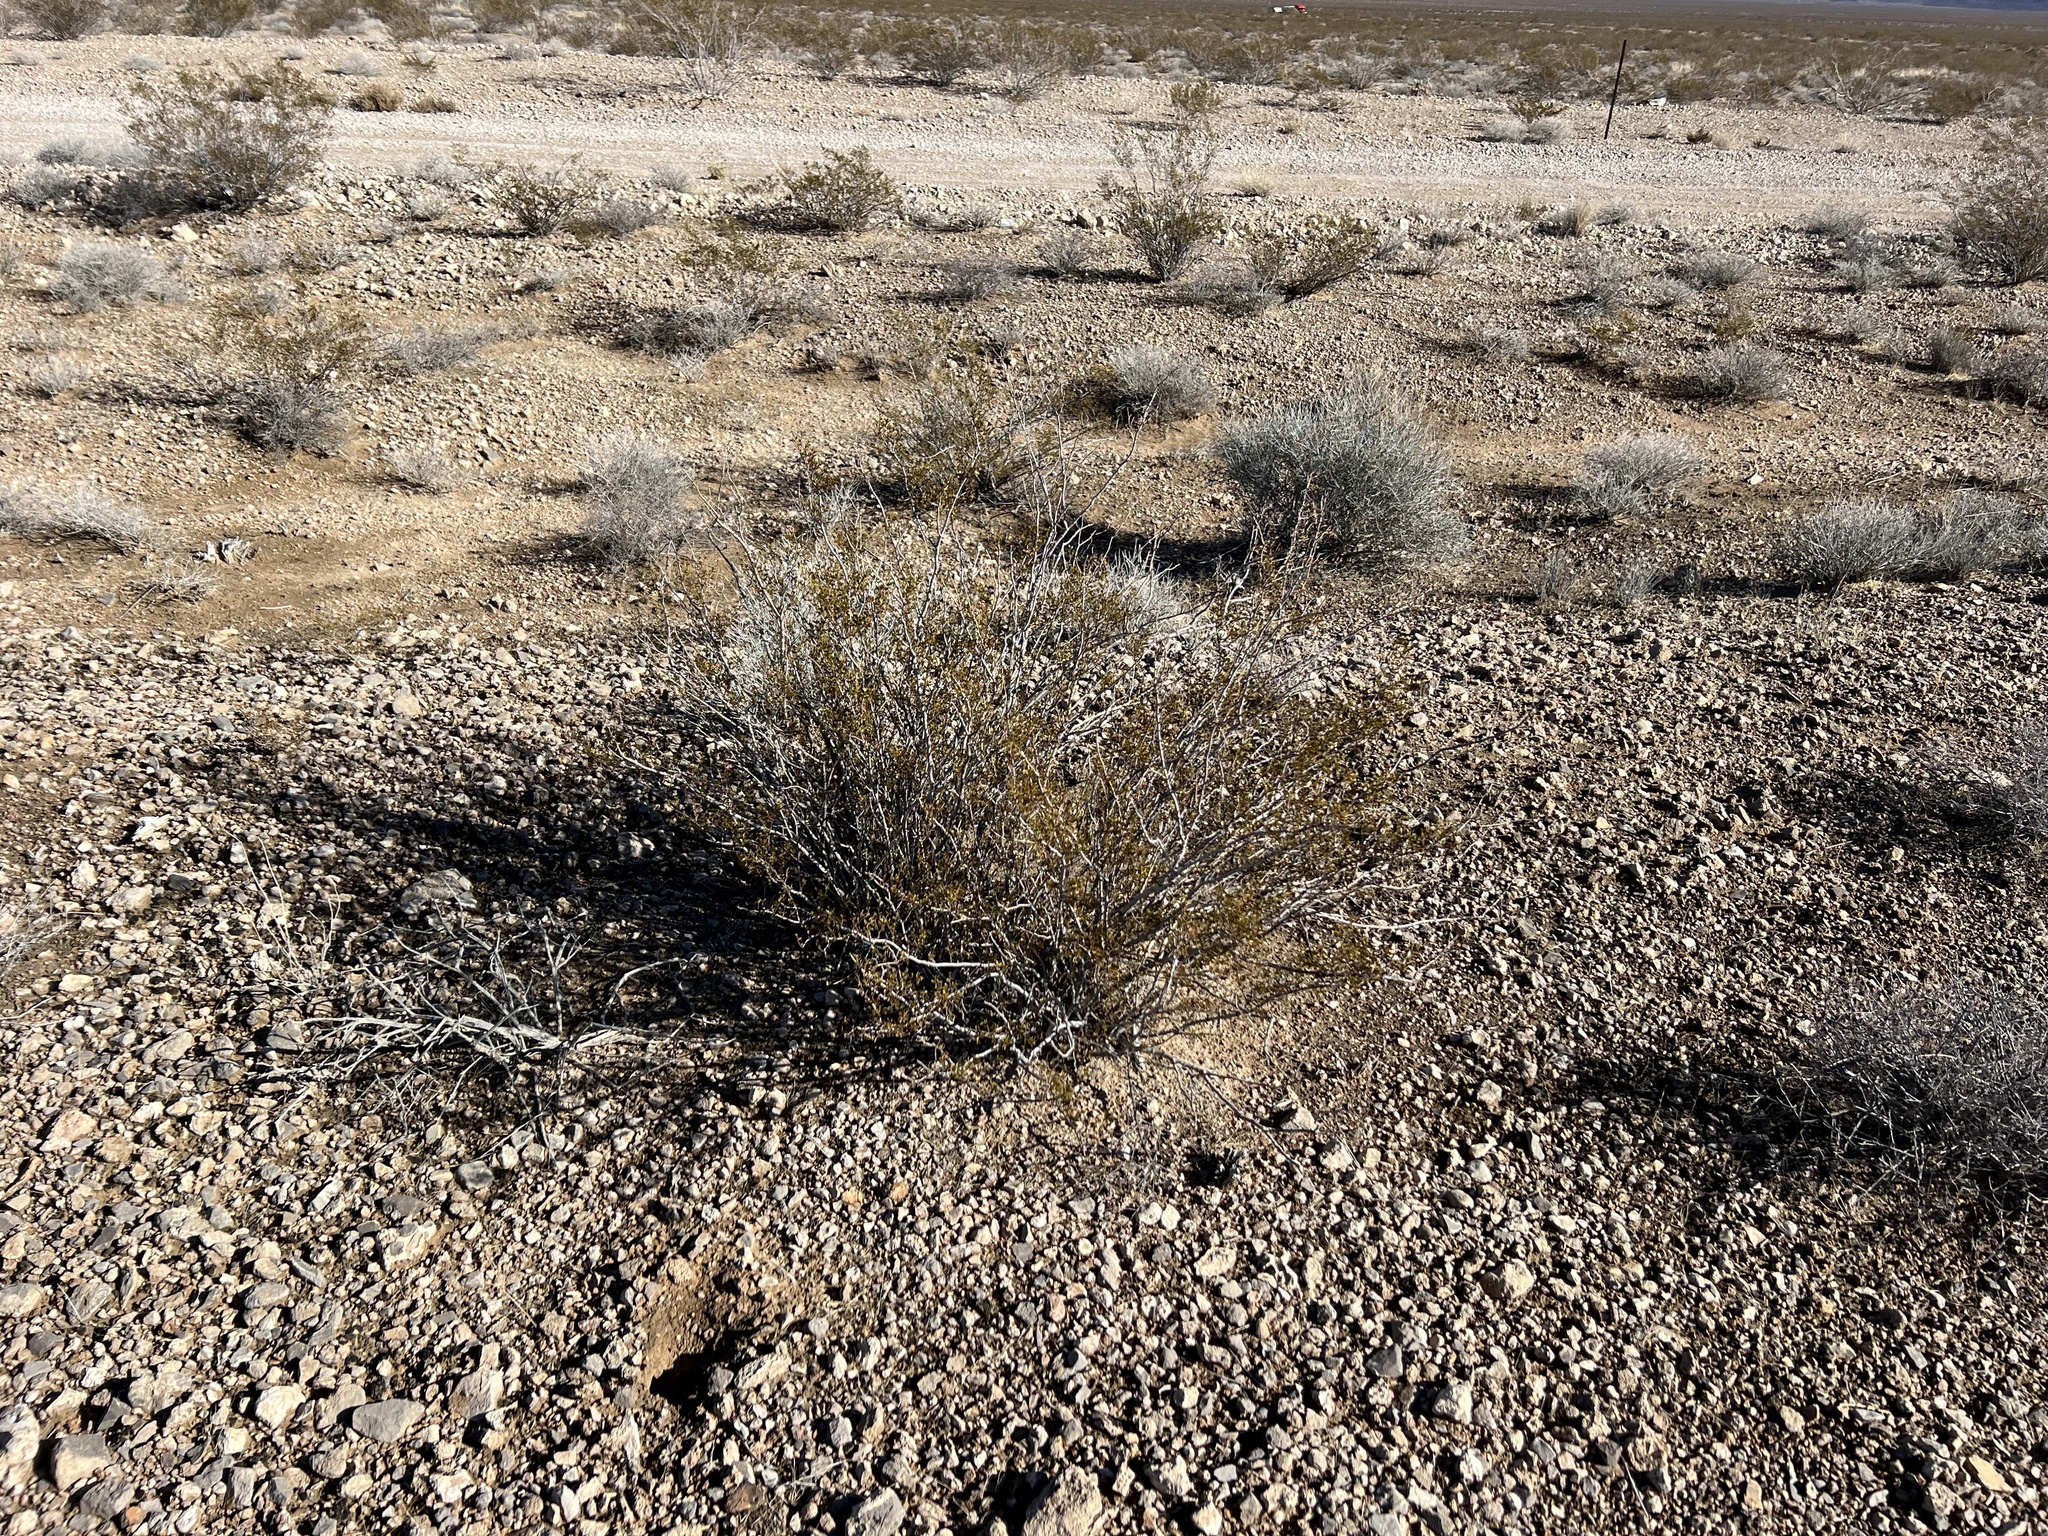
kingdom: Plantae
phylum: Tracheophyta
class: Magnoliopsida
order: Zygophyllales
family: Zygophyllaceae
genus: Larrea
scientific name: Larrea tridentata
